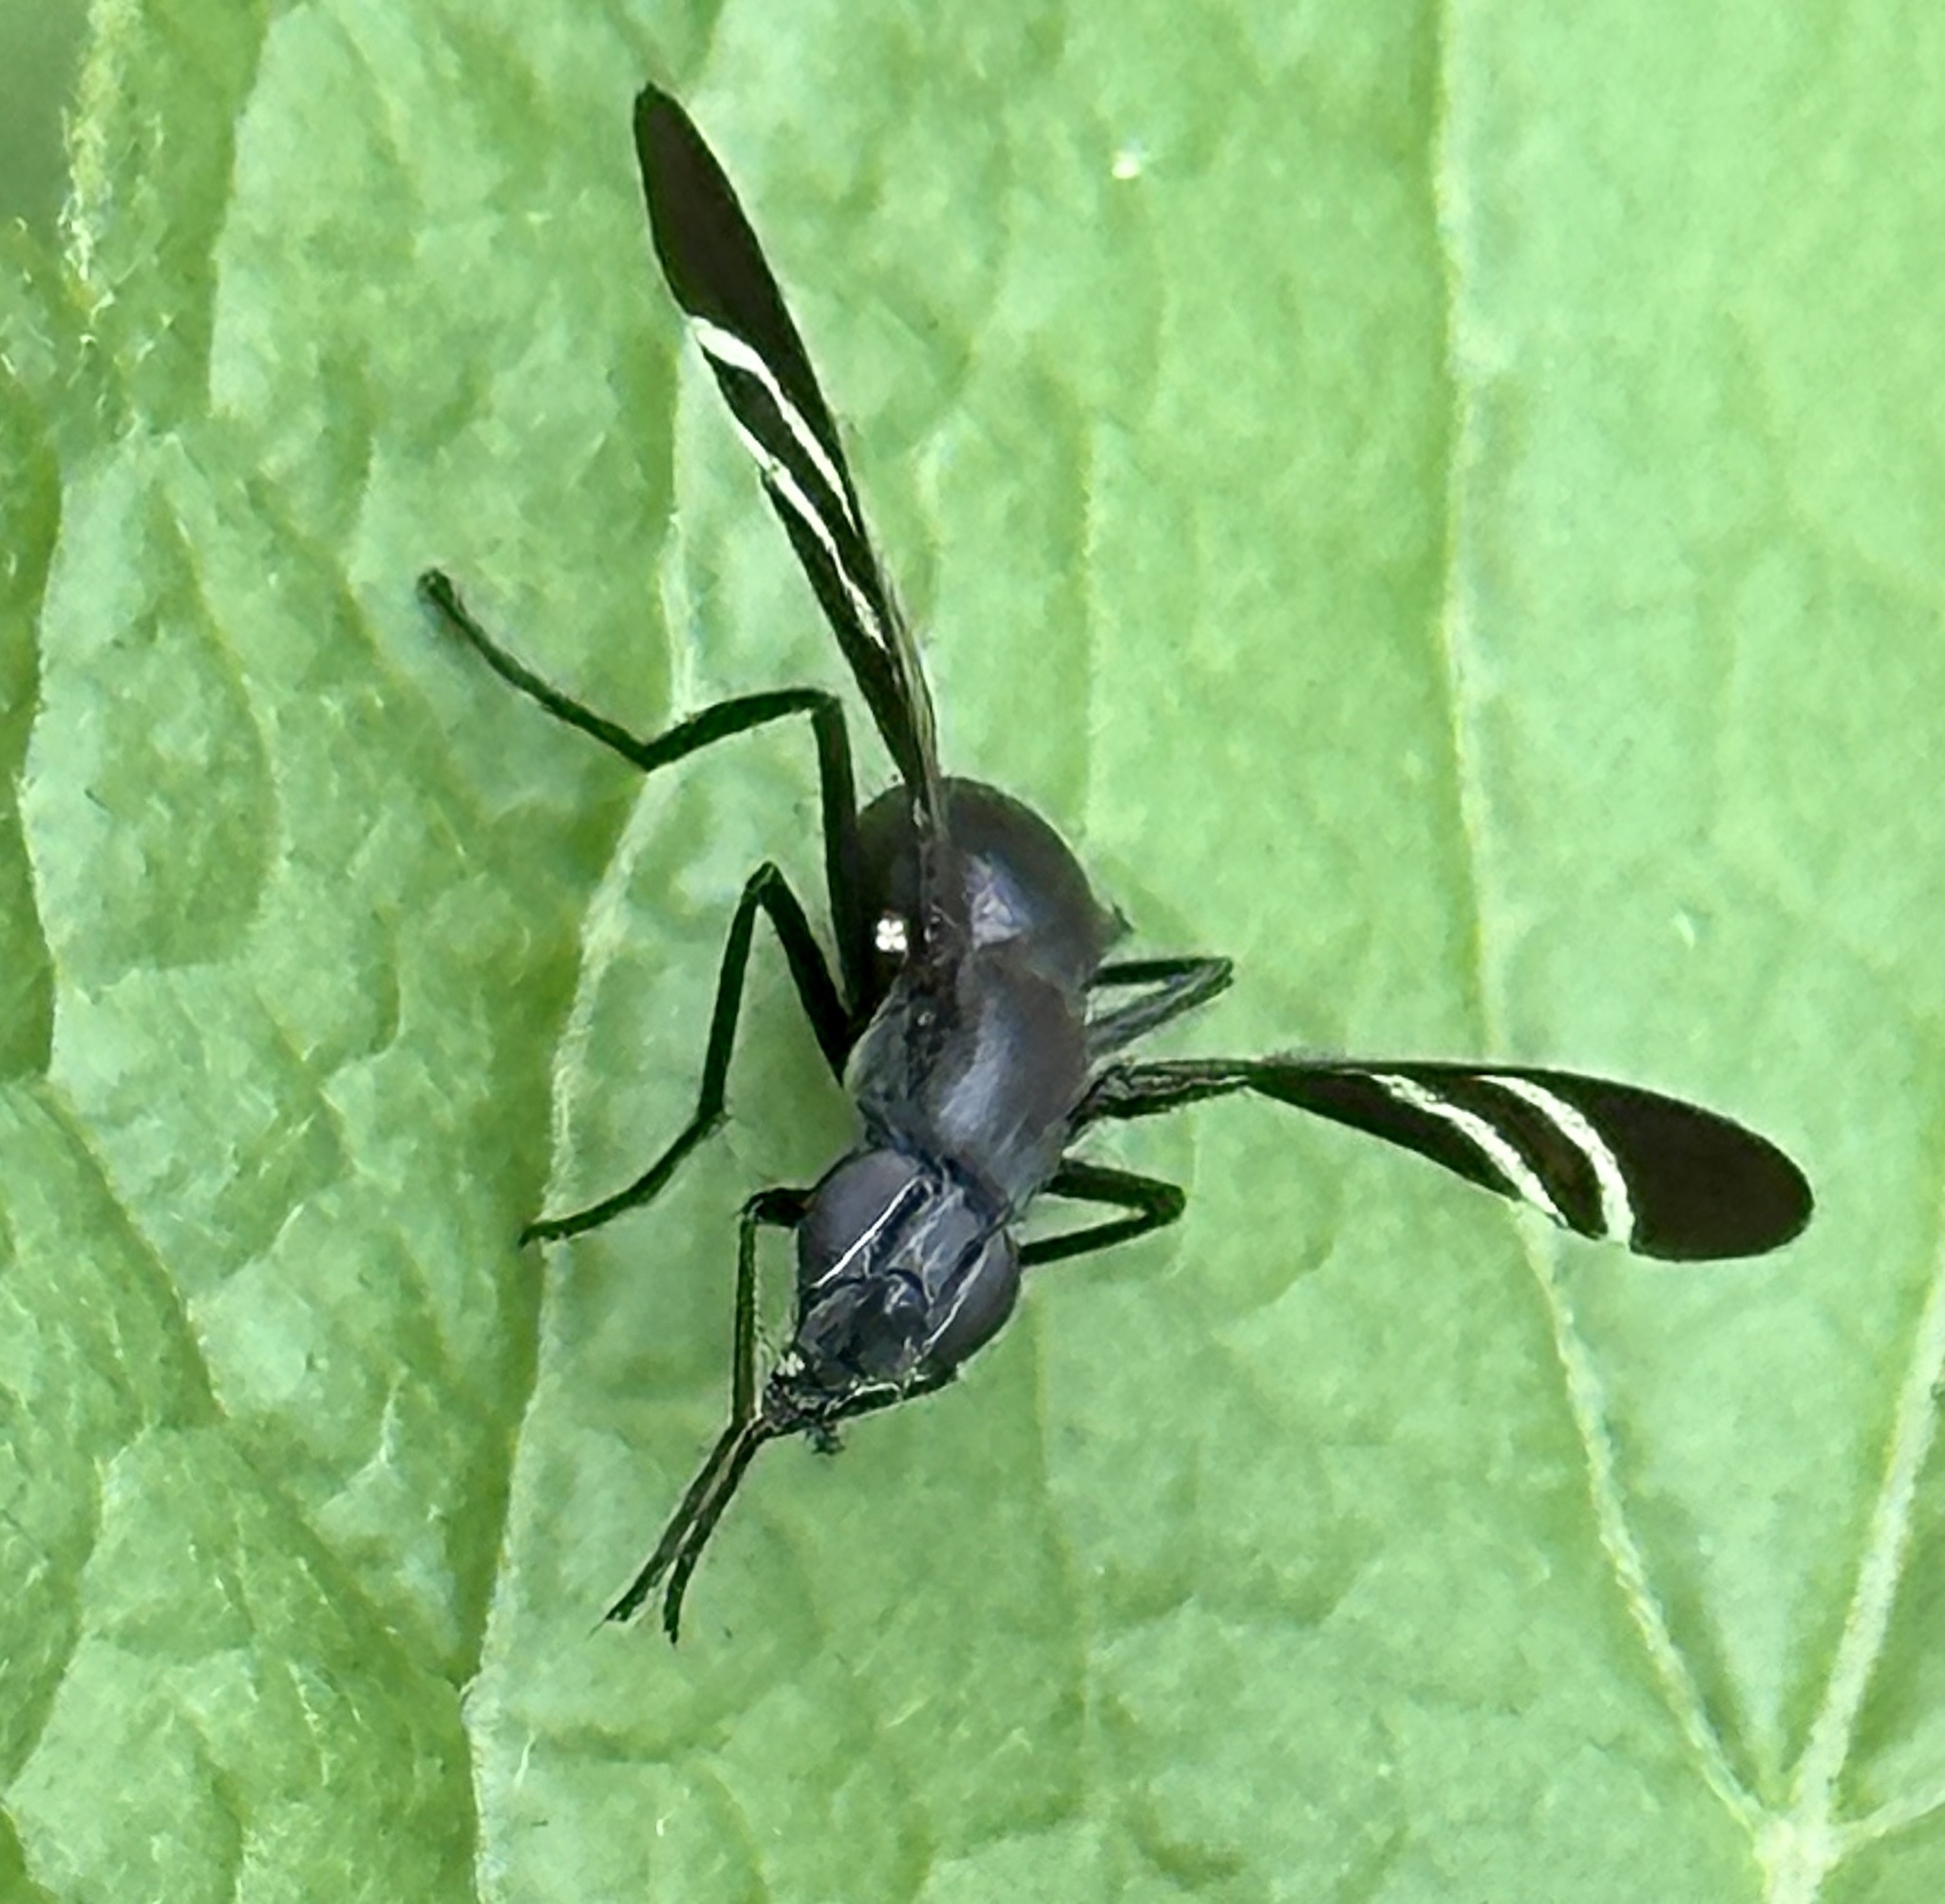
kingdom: Animalia
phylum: Arthropoda
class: Insecta
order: Diptera
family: Ulidiidae
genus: Tritoxa
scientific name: Tritoxa flexa
